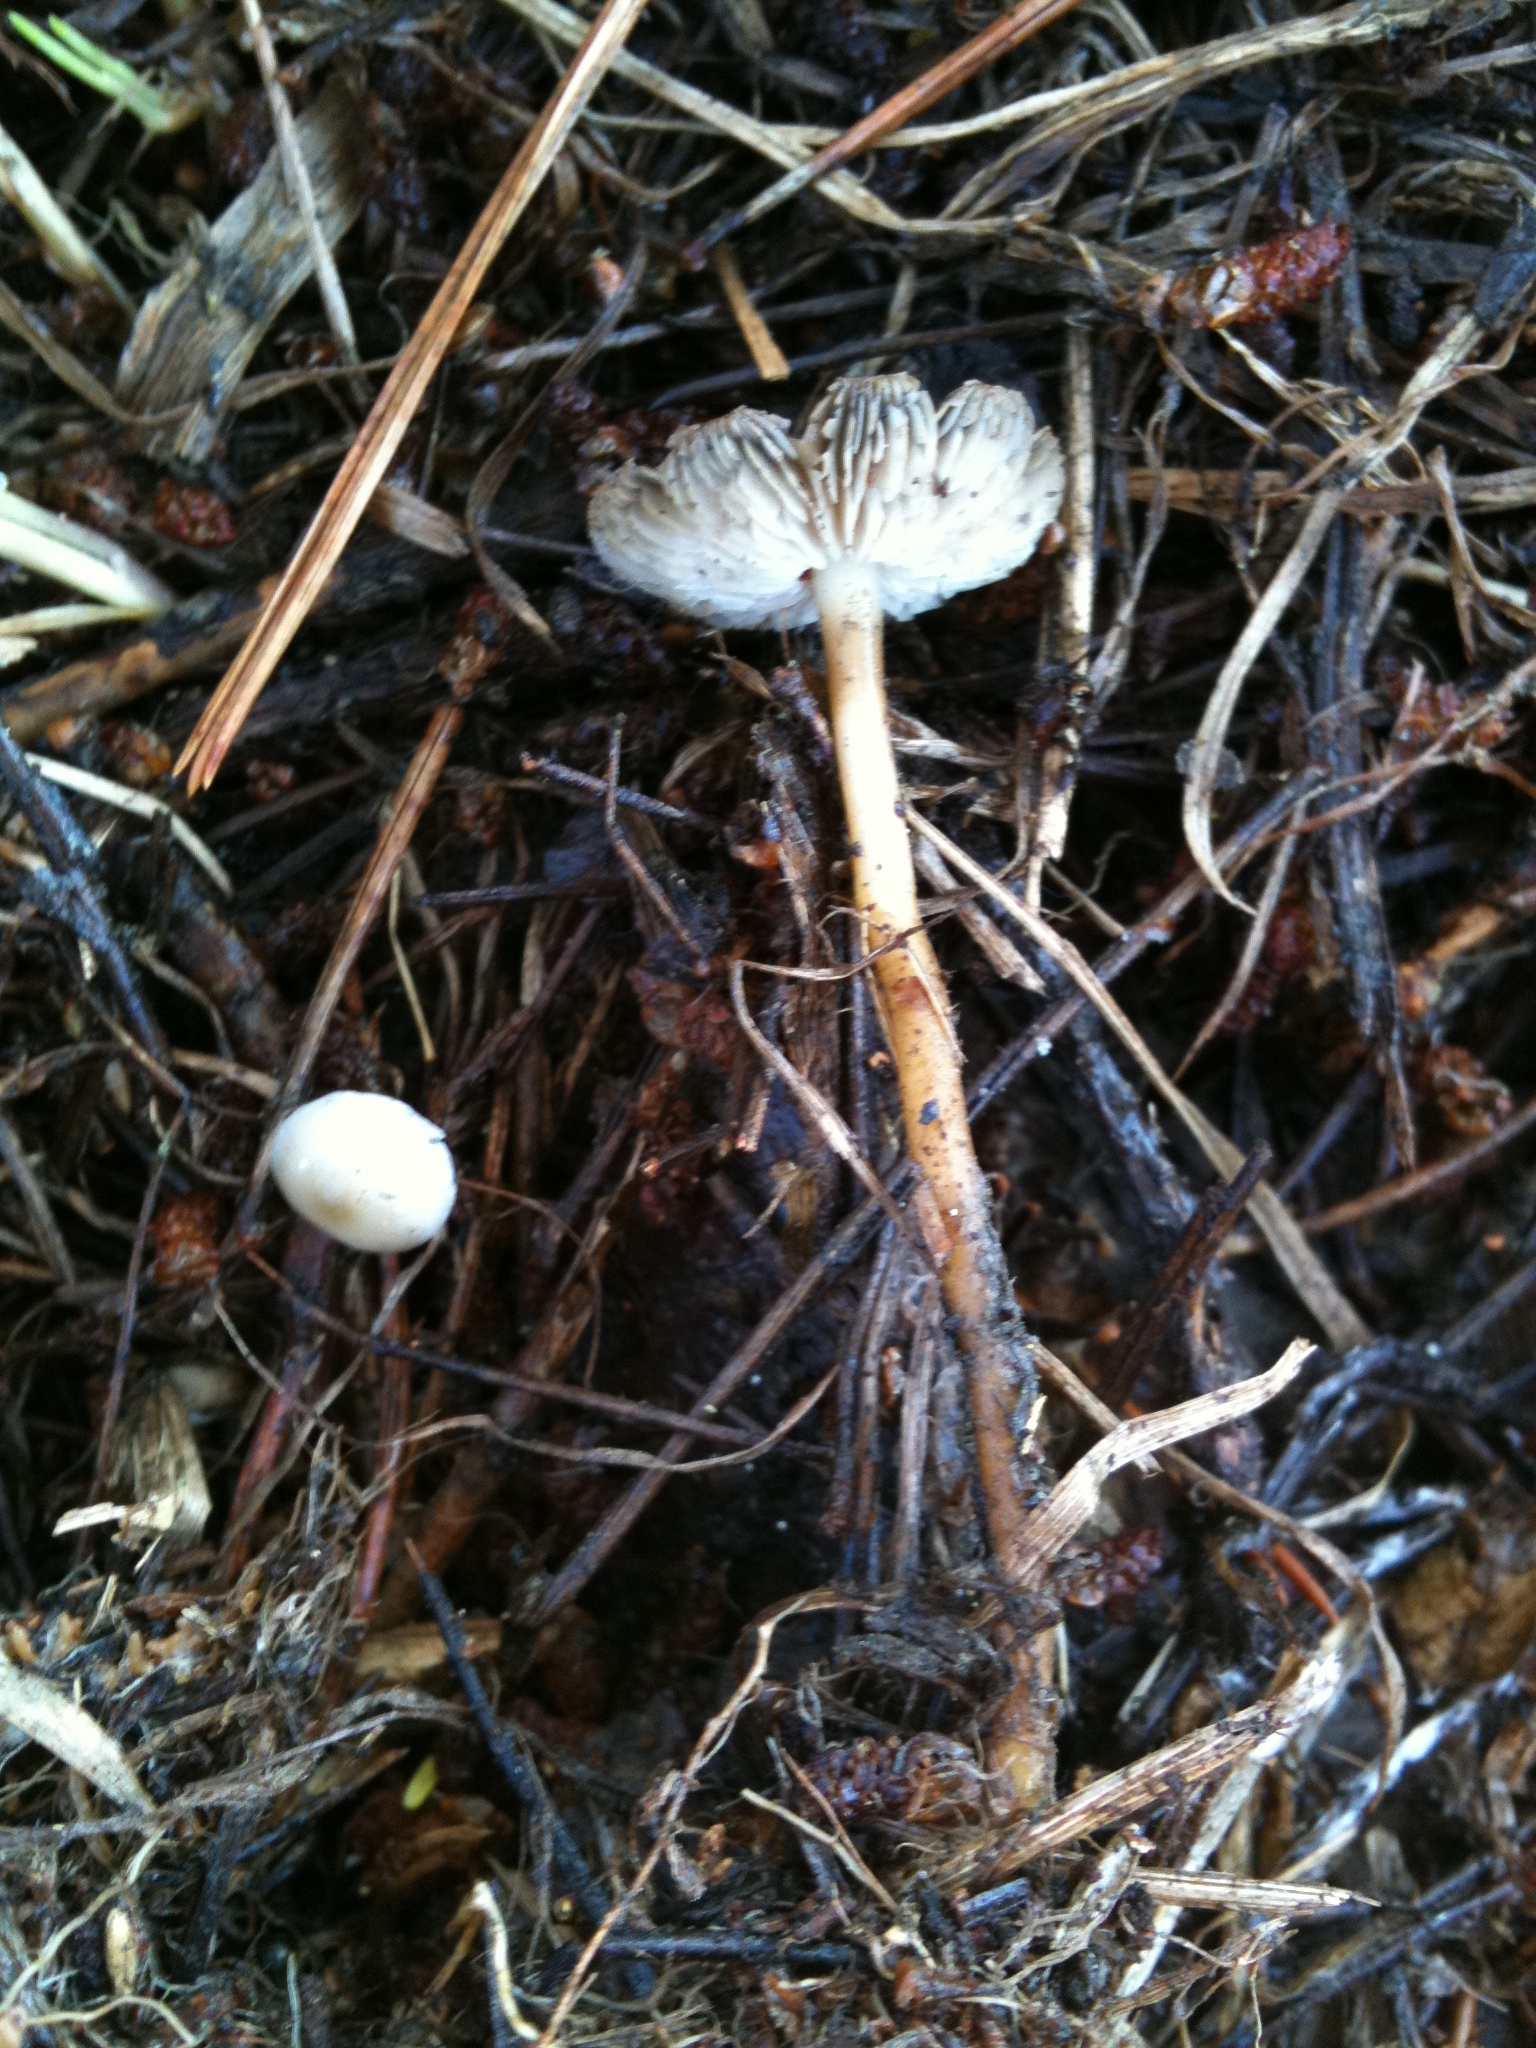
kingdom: Fungi
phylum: Basidiomycota
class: Agaricomycetes
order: Agaricales
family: Physalacriaceae
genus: Strobilurus
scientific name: Strobilurus stephanocystis
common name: Russian conecap
